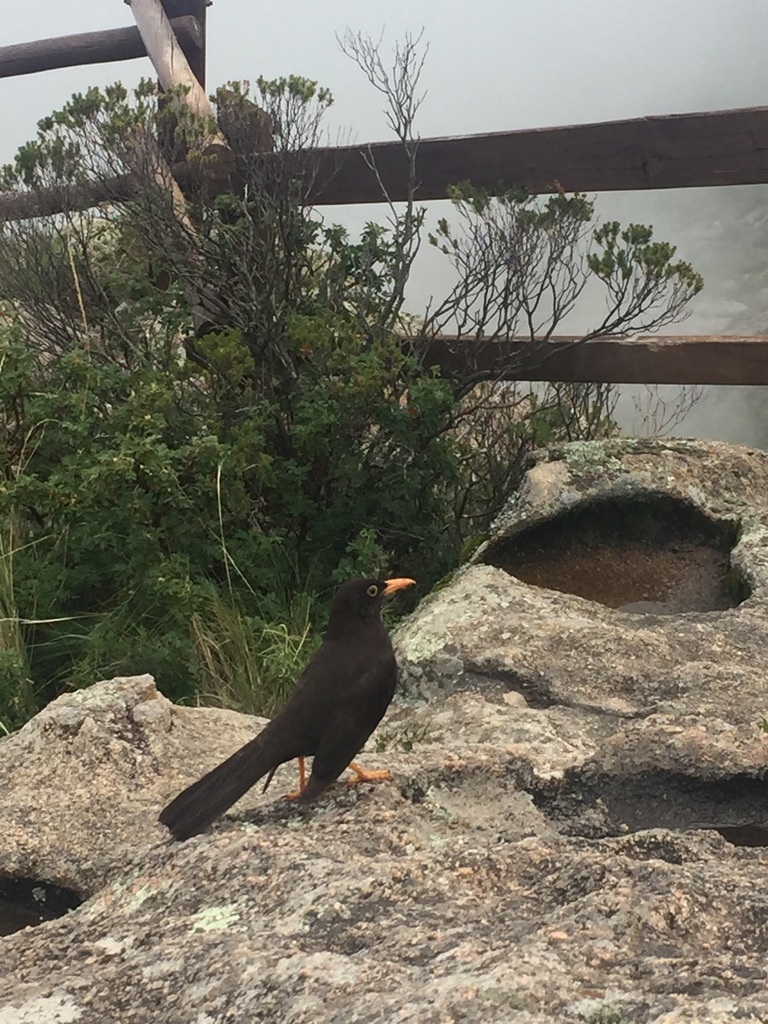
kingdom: Animalia
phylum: Chordata
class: Aves
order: Passeriformes
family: Turdidae
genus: Turdus
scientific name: Turdus chiguanco
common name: Chiguanco thrush
